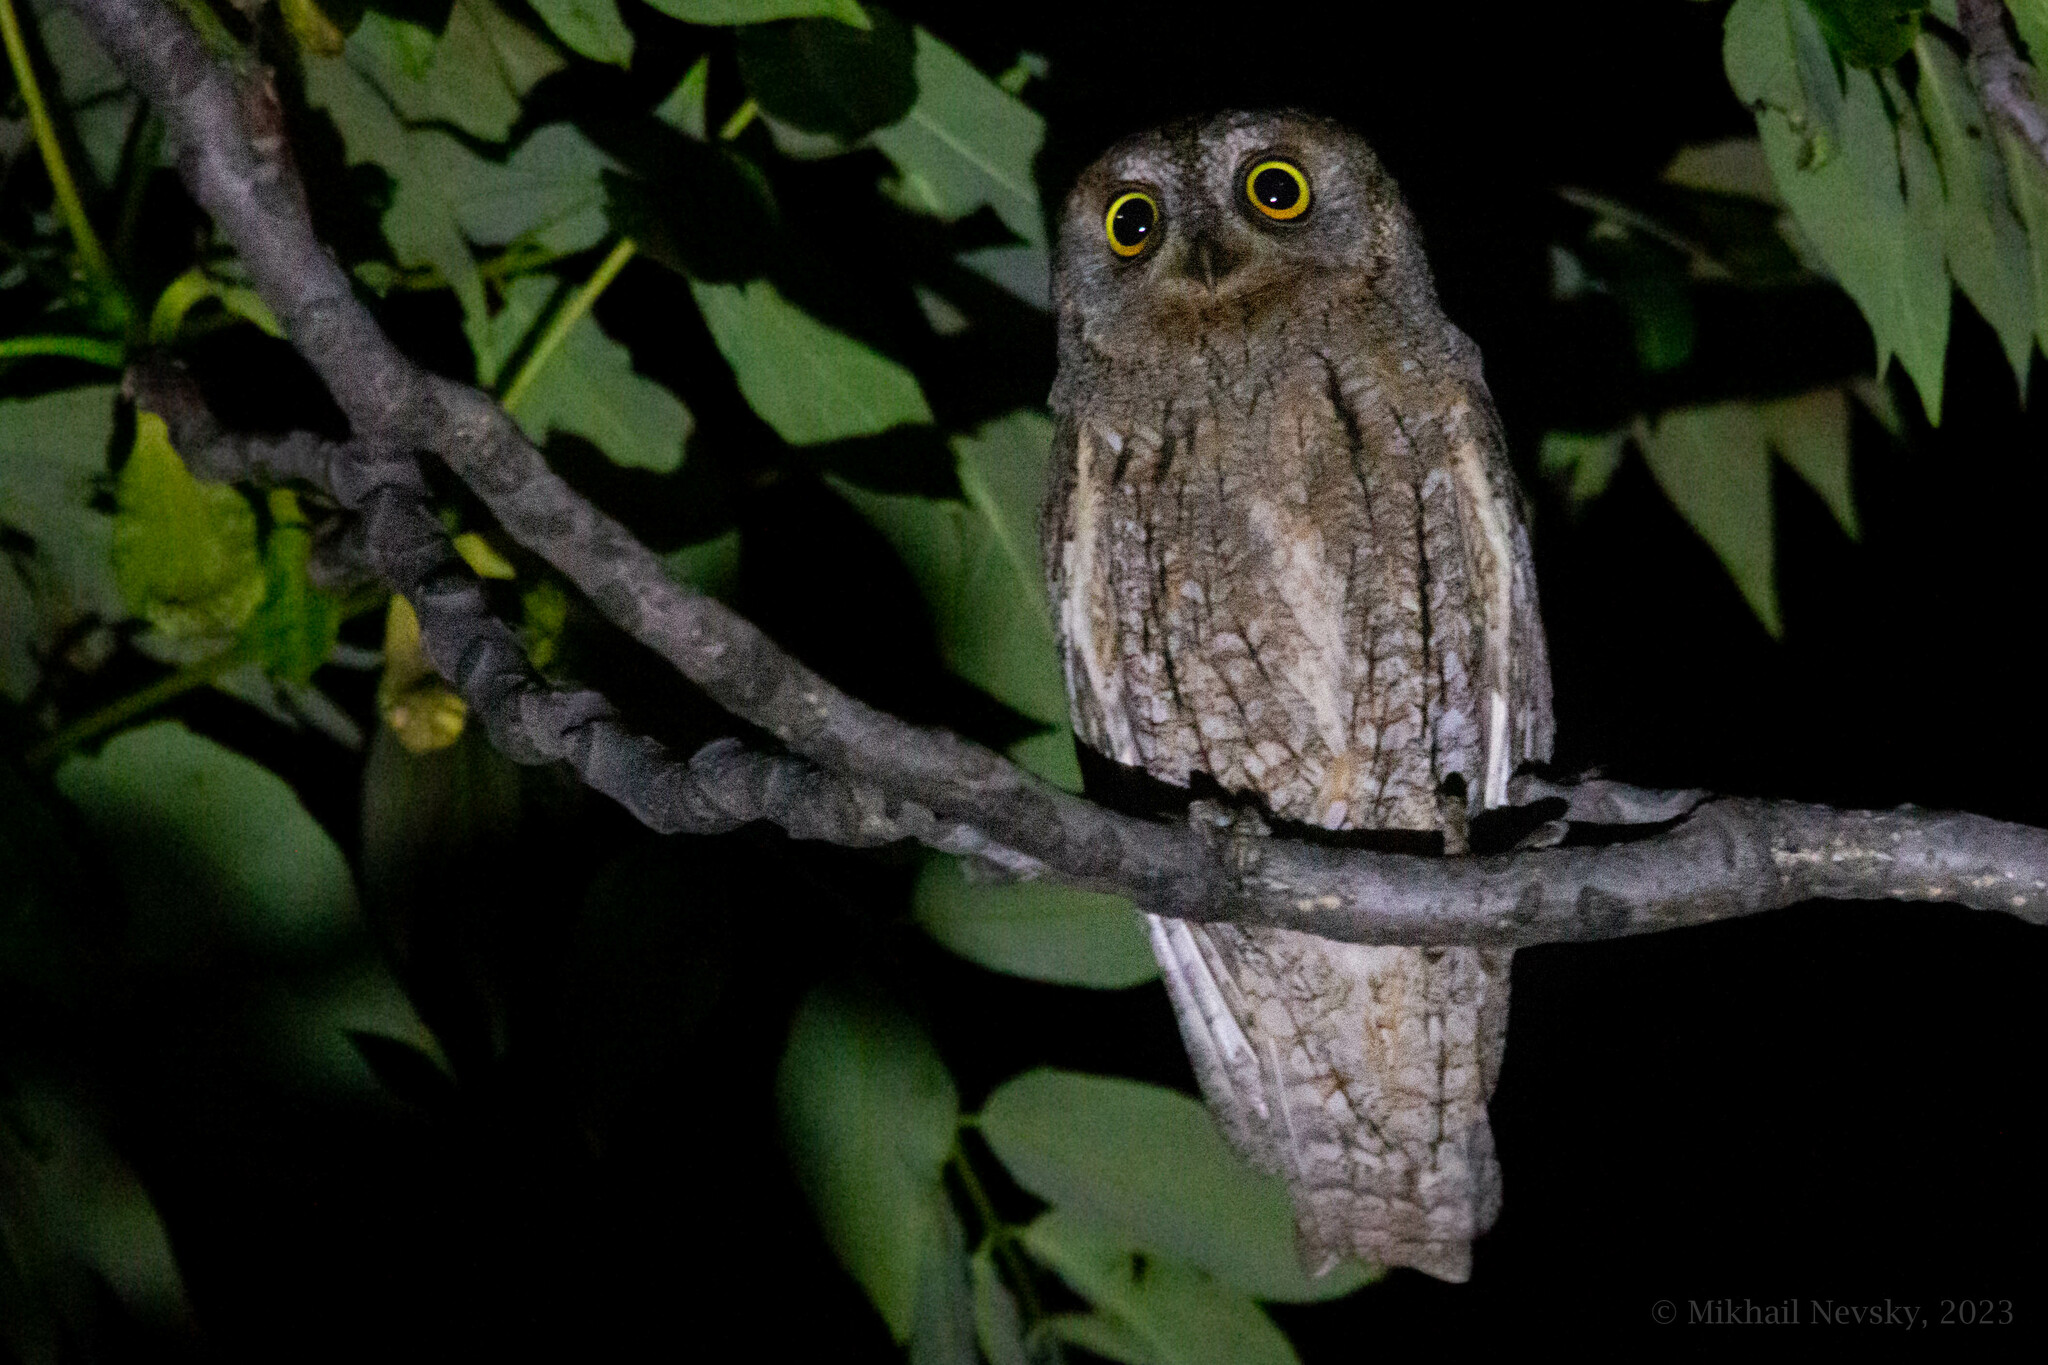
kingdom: Animalia
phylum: Chordata
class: Aves
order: Strigiformes
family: Strigidae
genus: Otus
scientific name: Otus scops
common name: Eurasian scops owl
